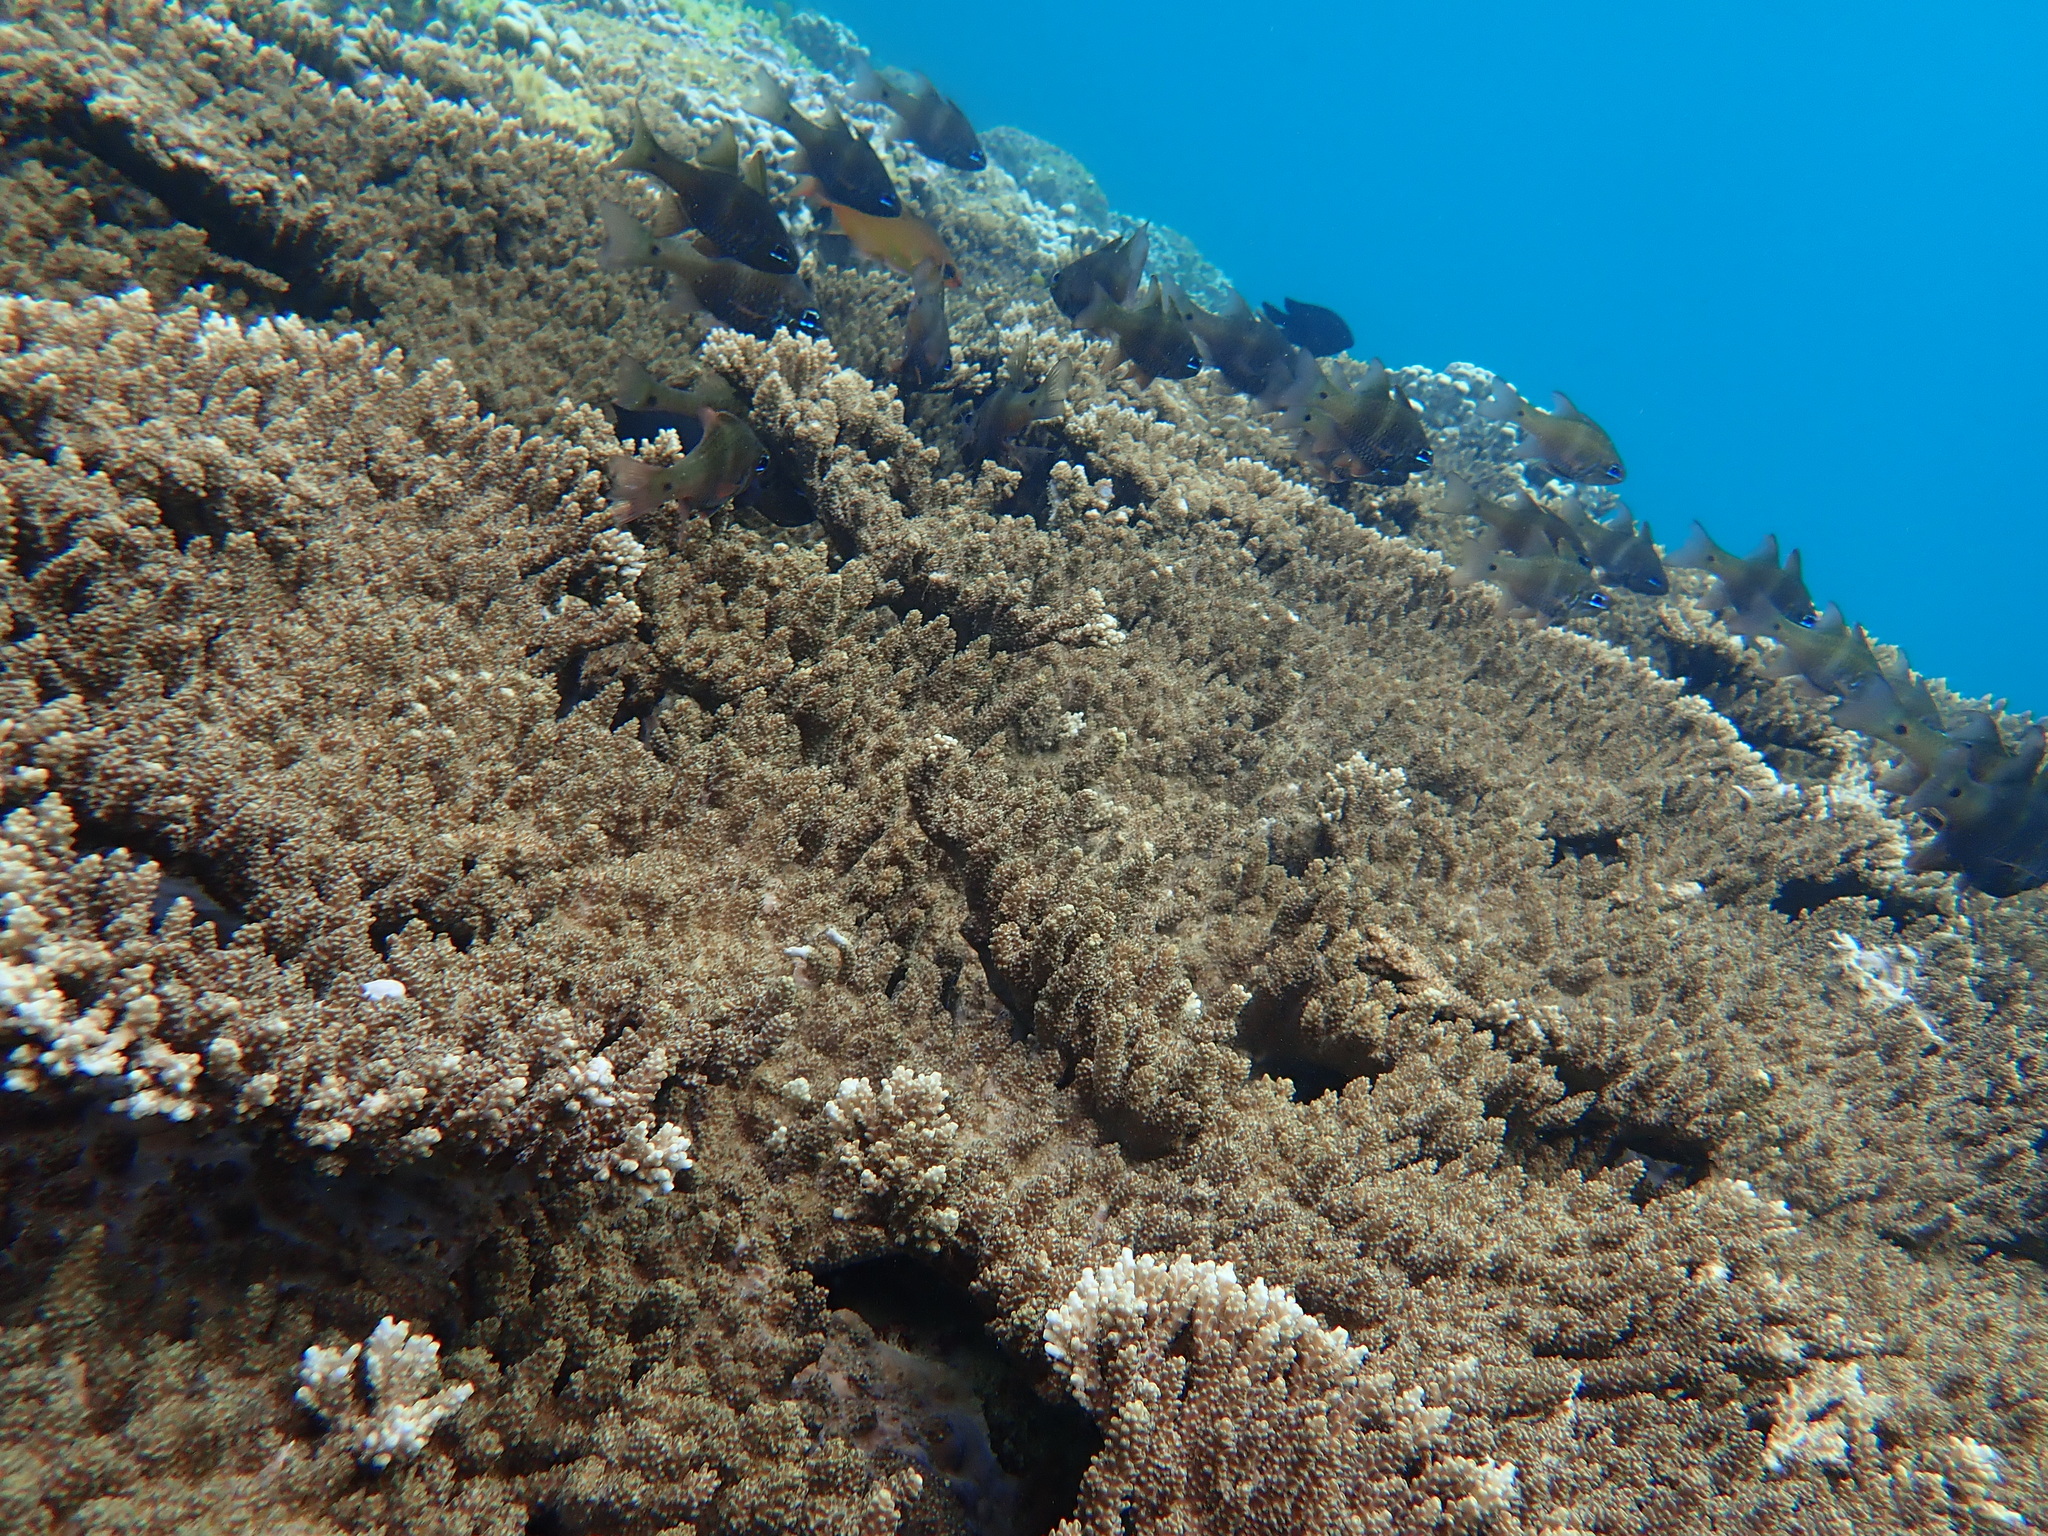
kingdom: Animalia
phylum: Chordata
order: Perciformes
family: Apogonidae
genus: Ostorhinchus
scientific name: Ostorhinchus norfolcensis
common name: Norfolk cardinalfish
